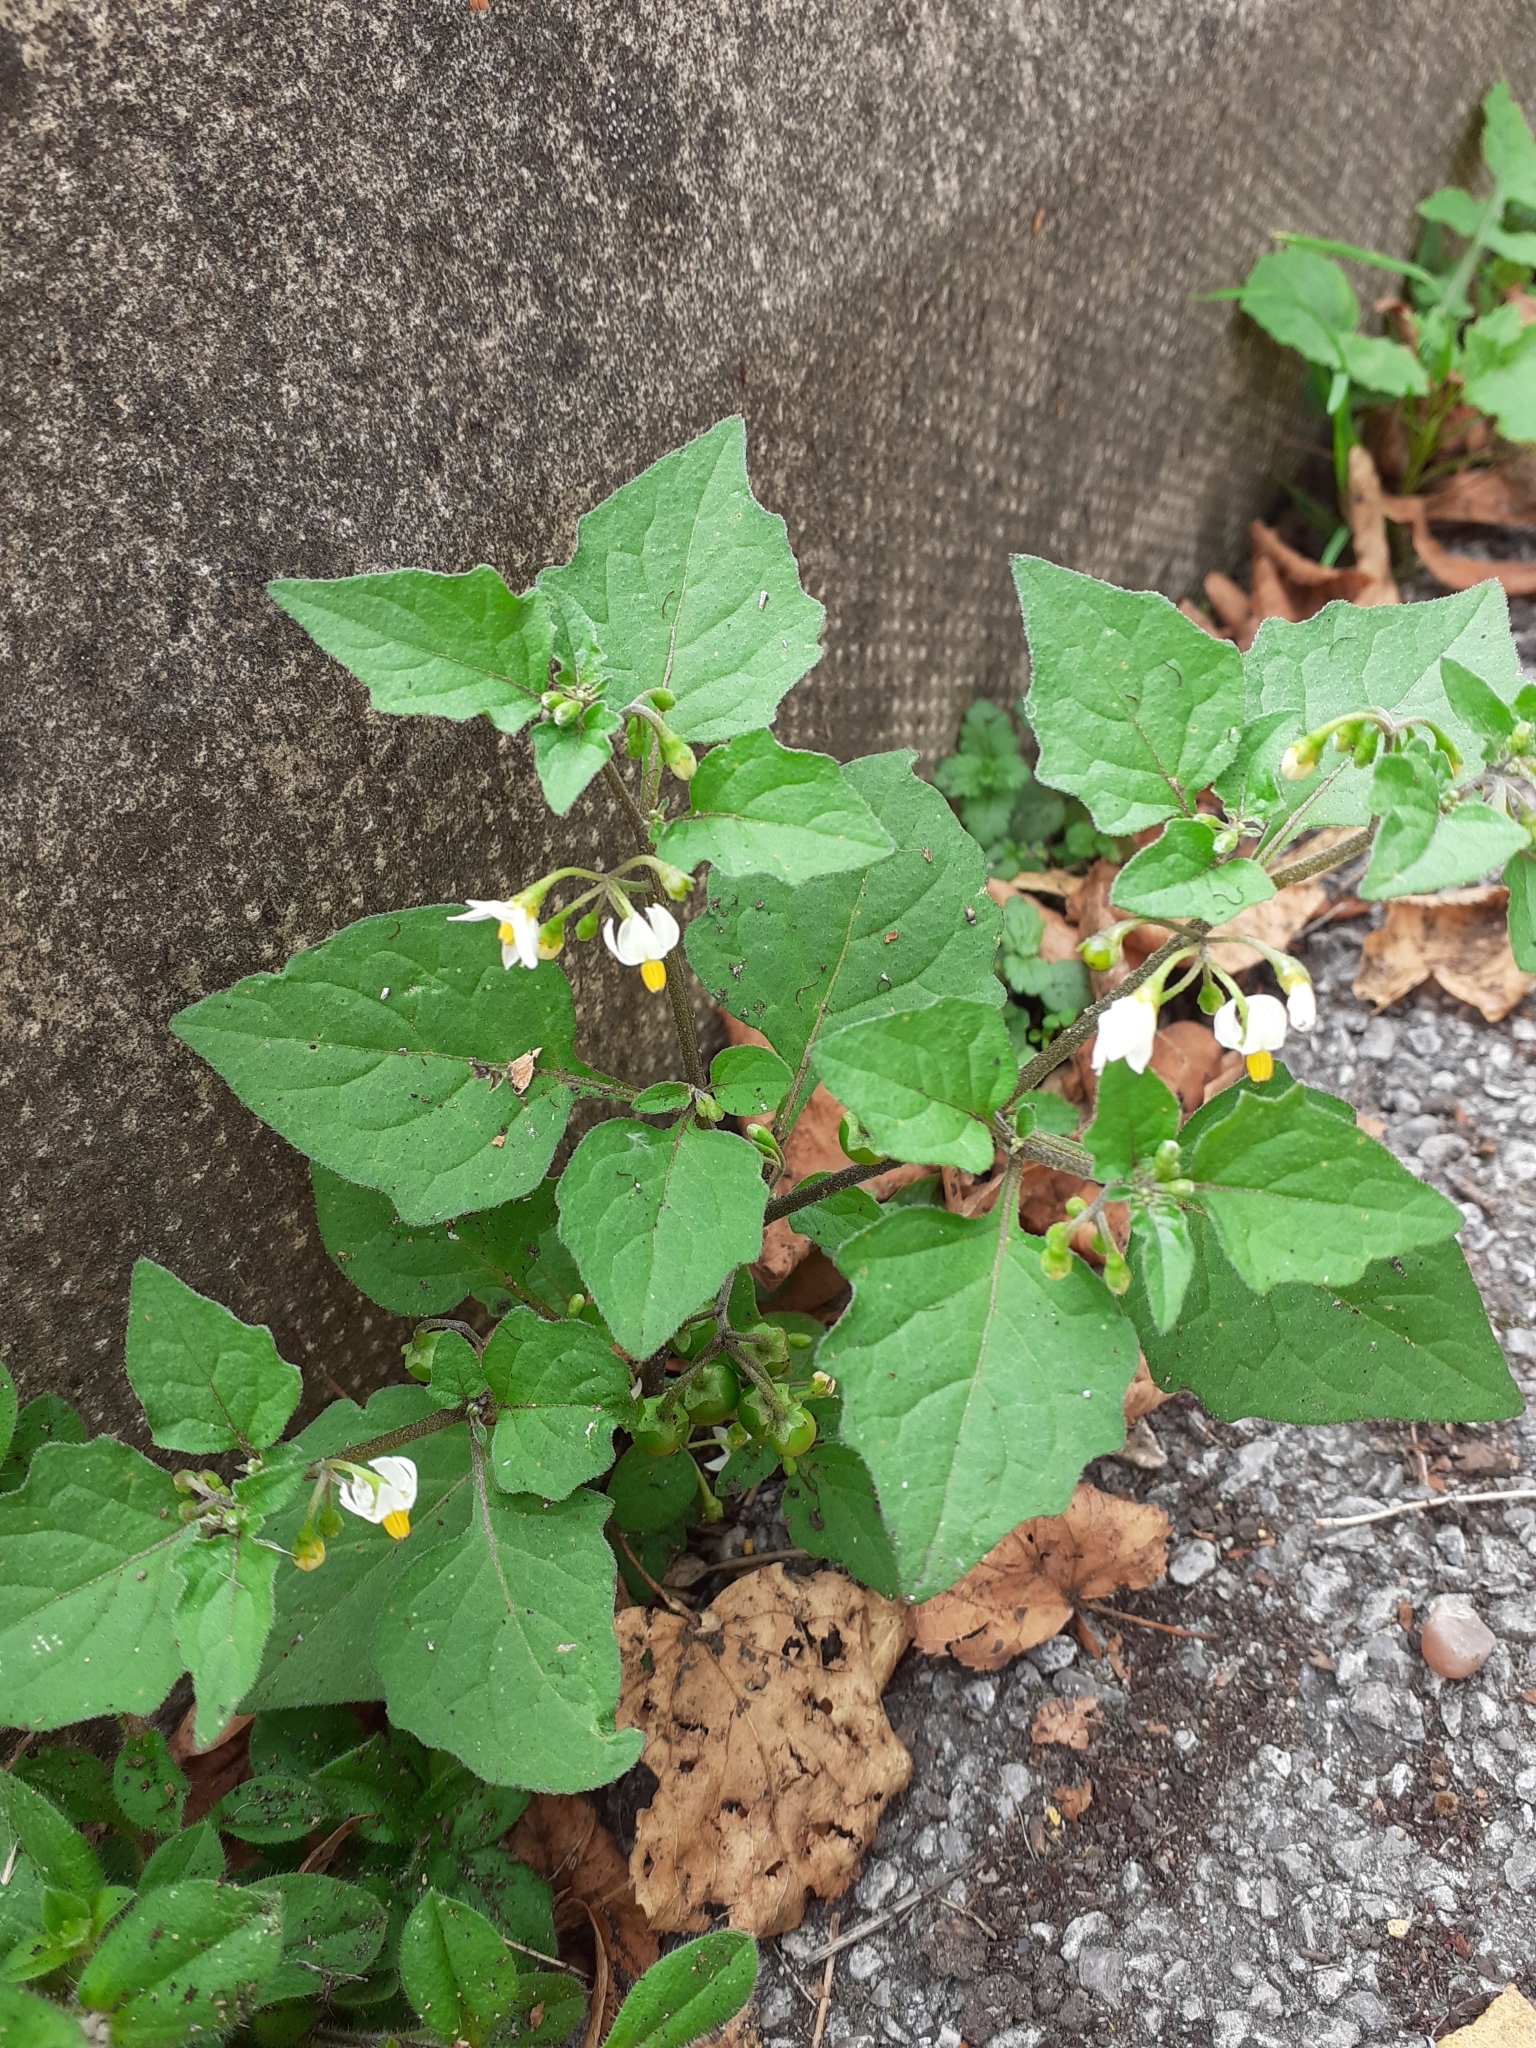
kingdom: Plantae
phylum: Tracheophyta
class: Magnoliopsida
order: Solanales
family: Solanaceae
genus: Solanum
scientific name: Solanum nigrum
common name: Black nightshade
